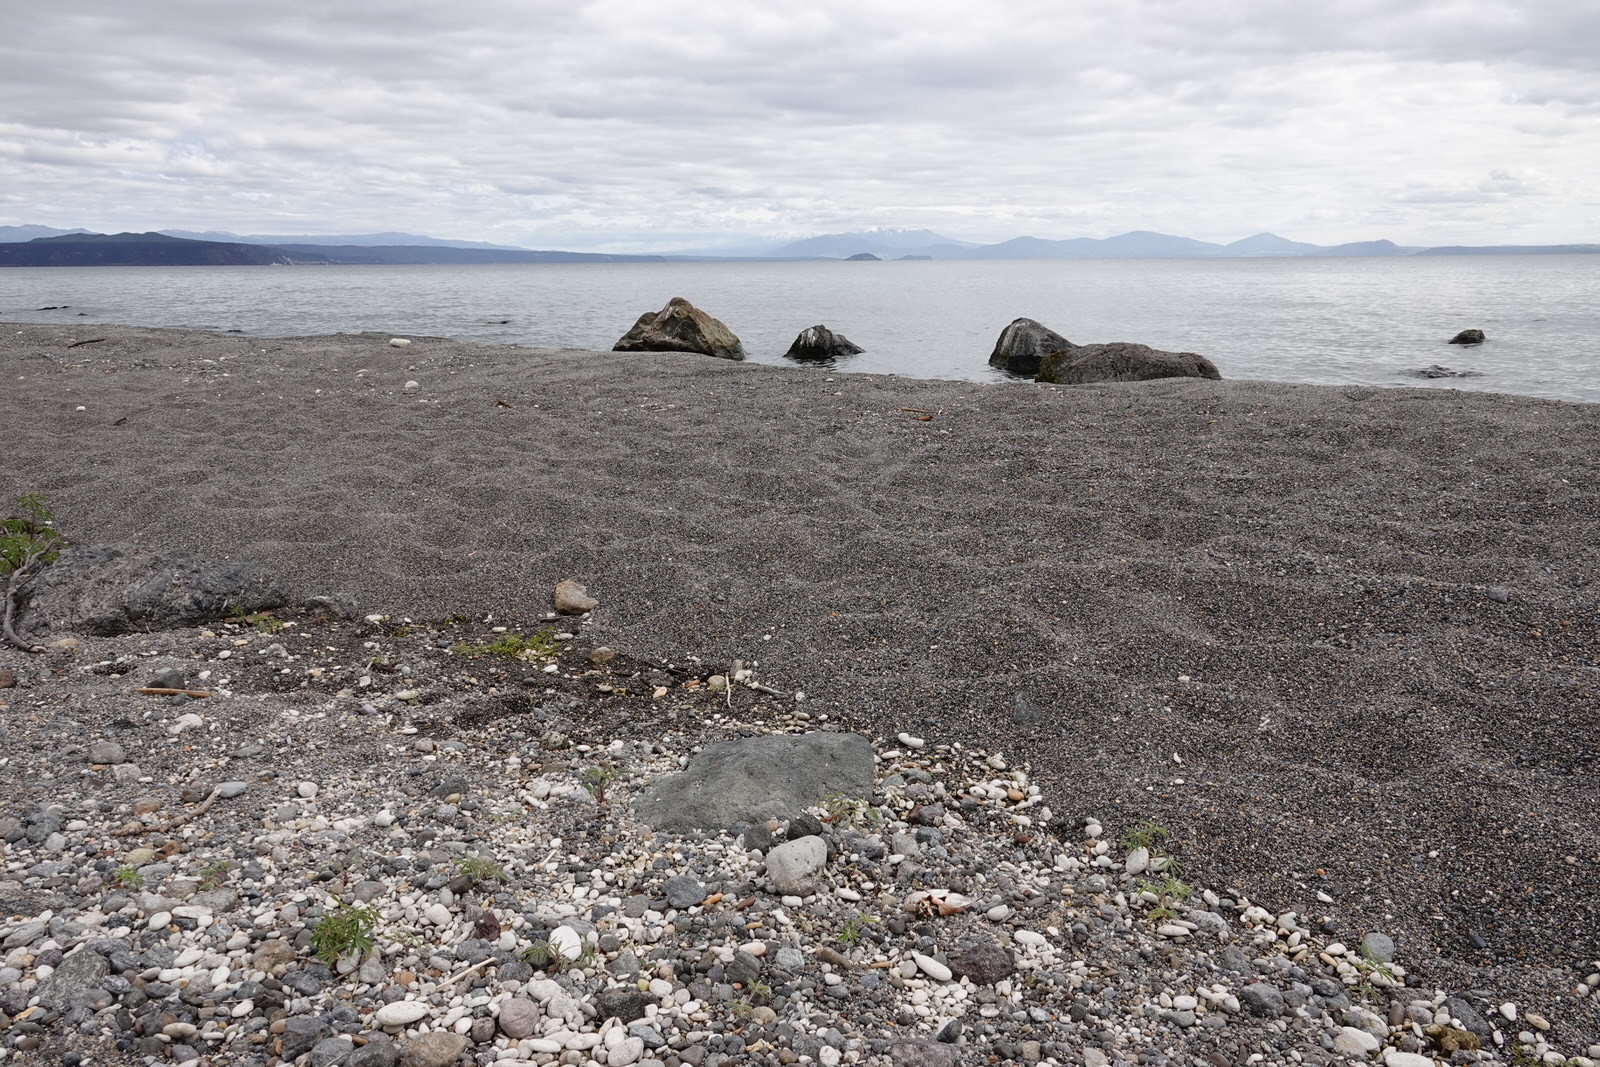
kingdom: Animalia
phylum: Arthropoda
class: Malacostraca
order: Decapoda
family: Parastacidae
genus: Paranephrops
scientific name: Paranephrops planifrons
